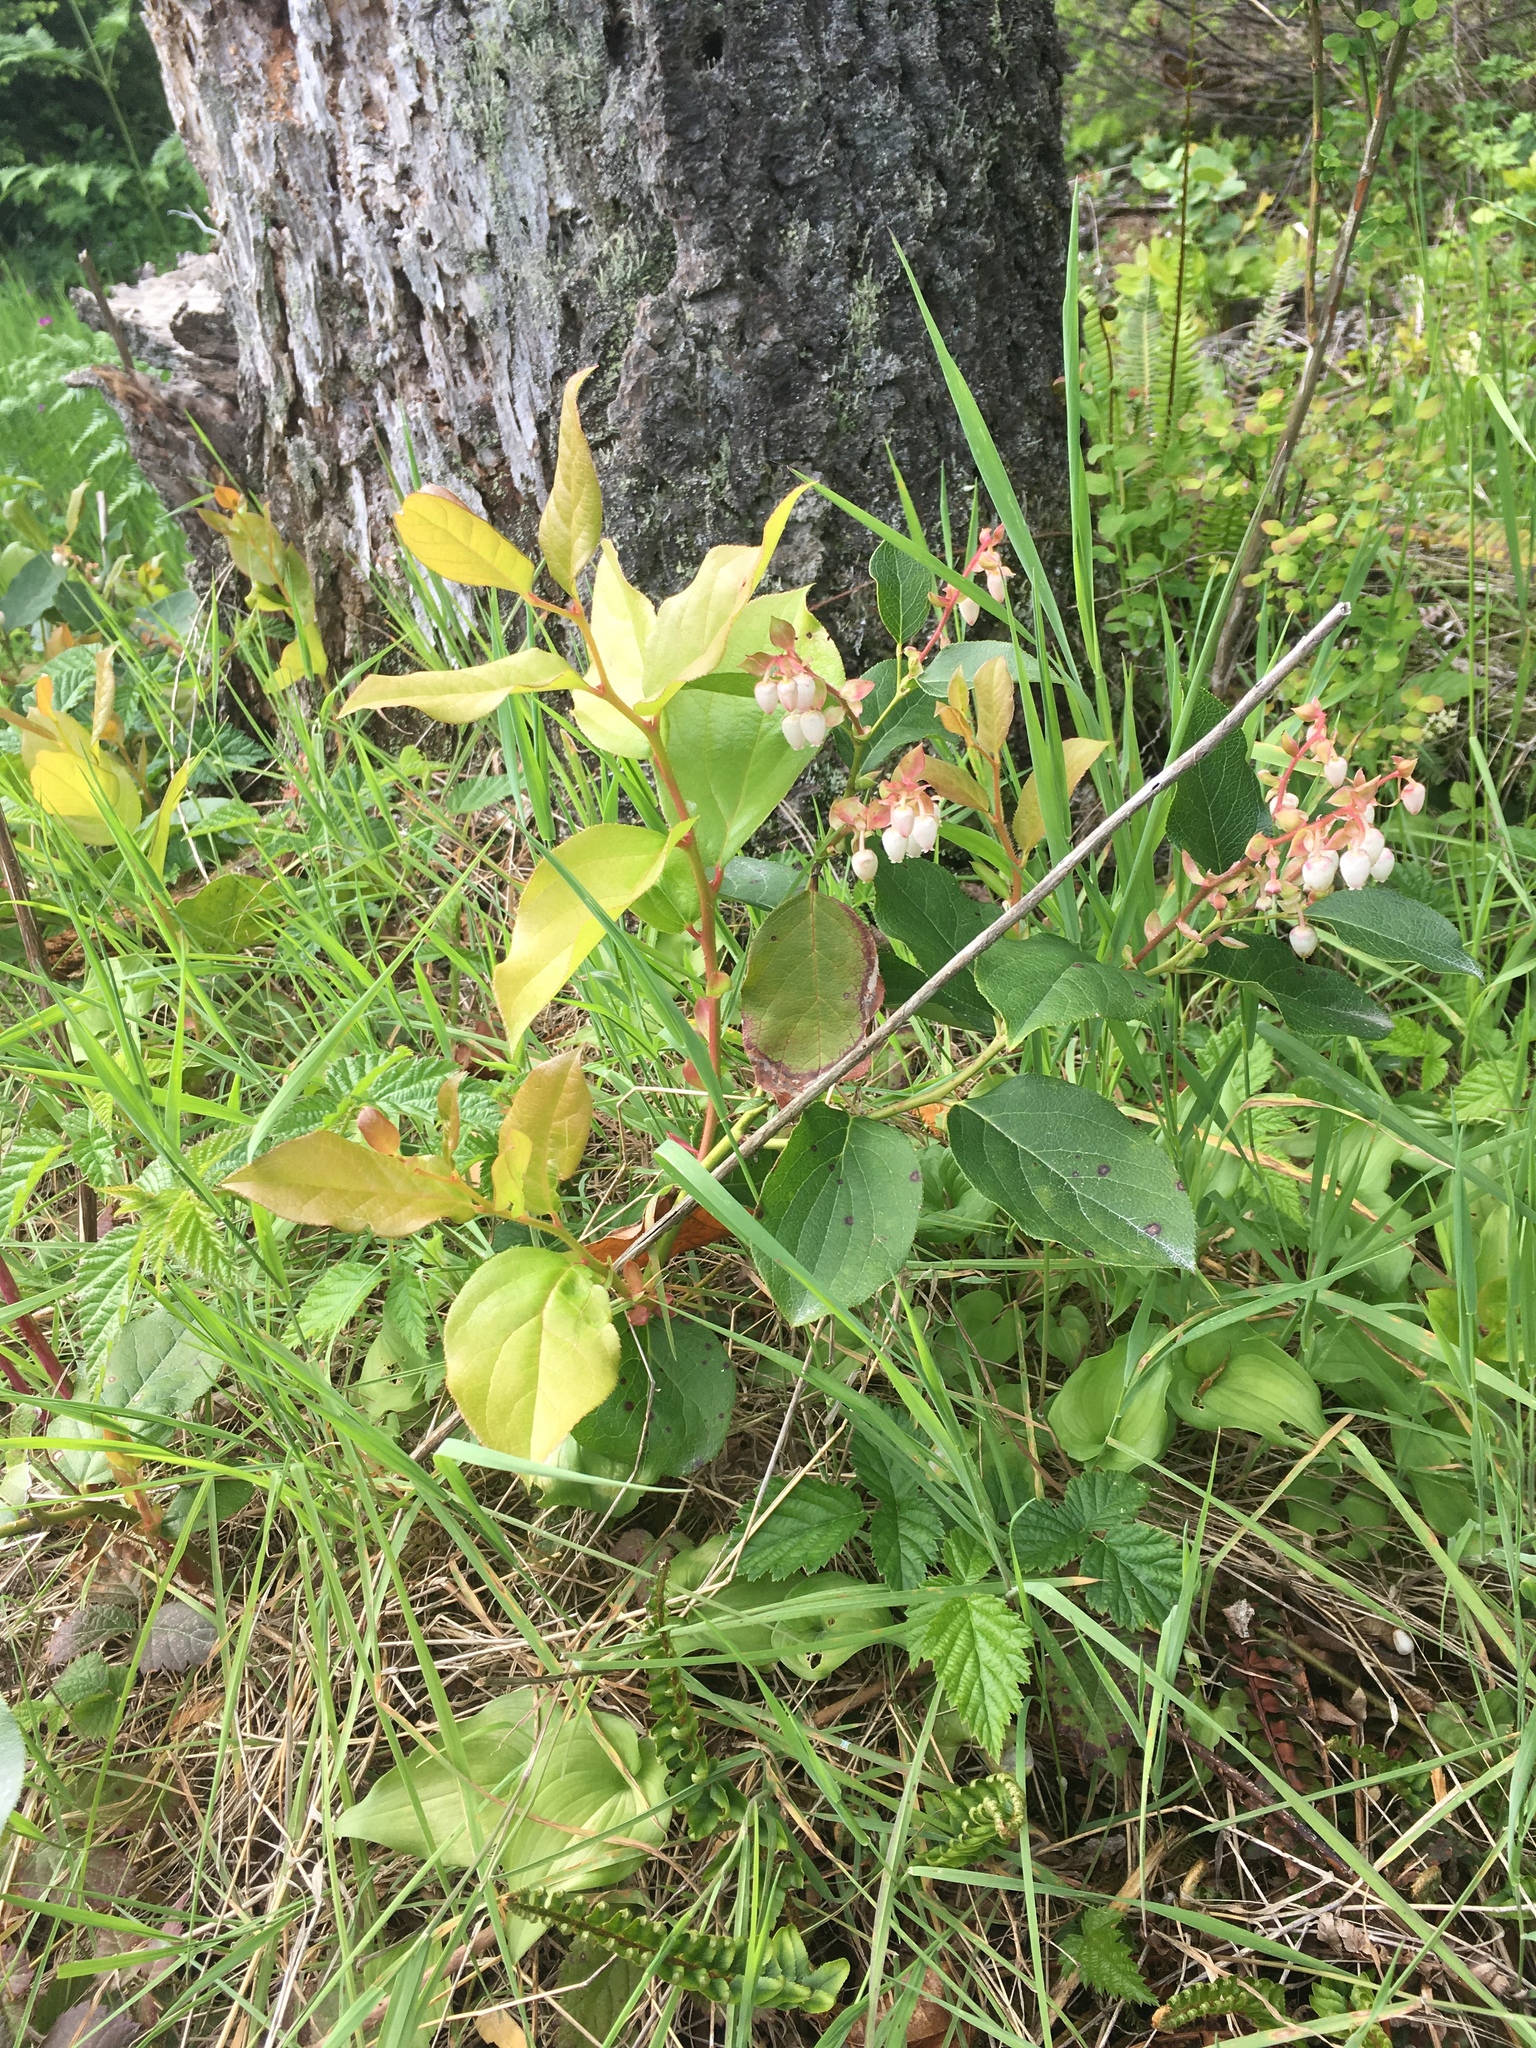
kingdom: Plantae
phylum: Tracheophyta
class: Magnoliopsida
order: Ericales
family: Ericaceae
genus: Gaultheria
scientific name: Gaultheria shallon
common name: Shallon
